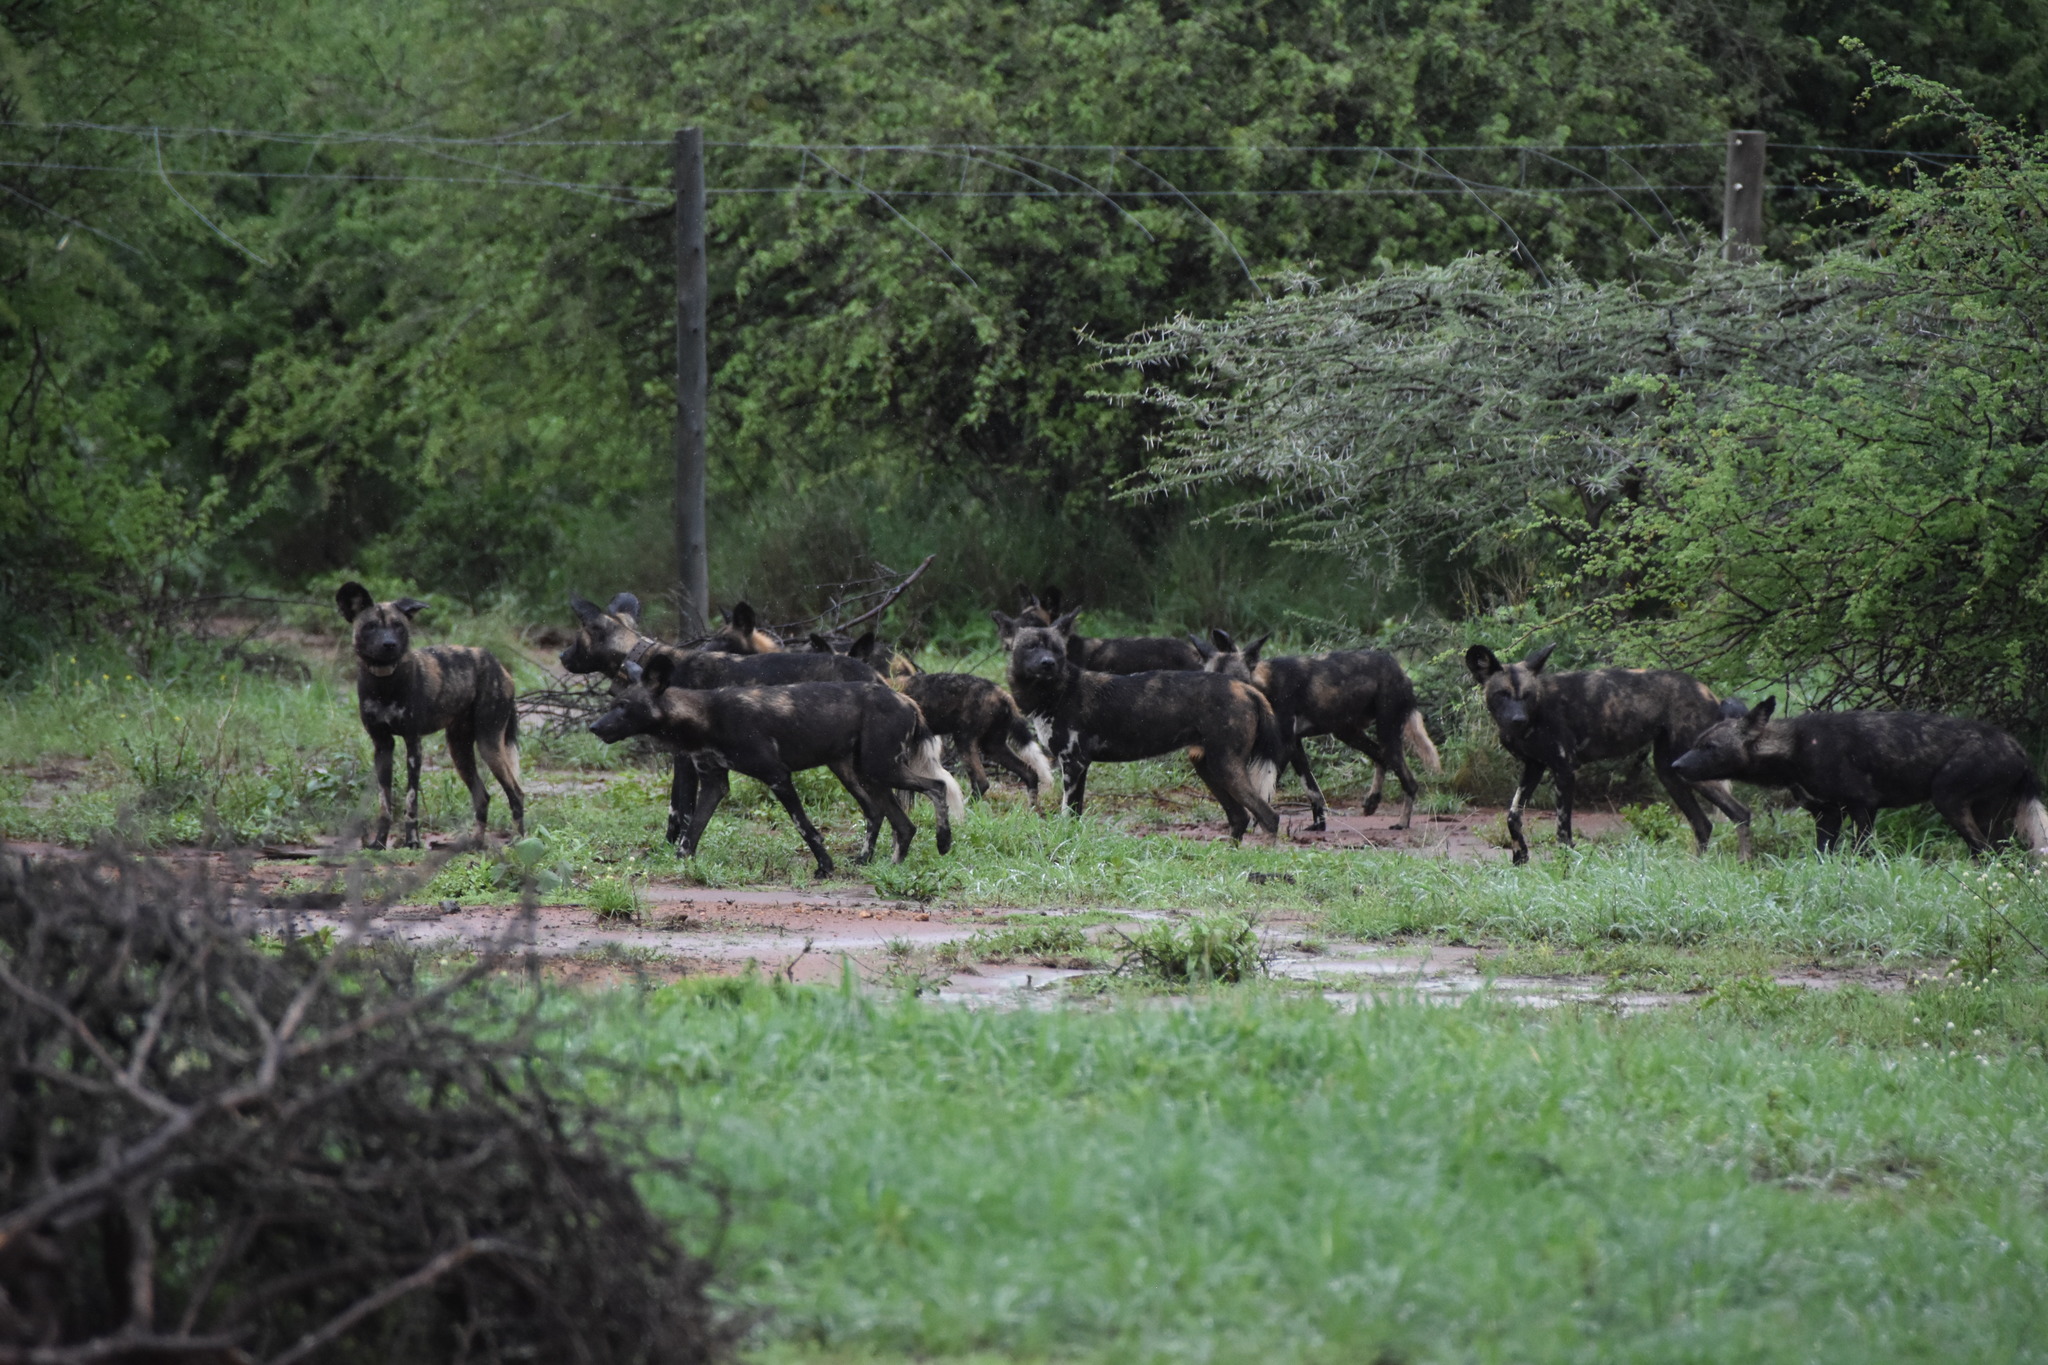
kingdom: Animalia
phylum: Chordata
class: Mammalia
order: Carnivora
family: Canidae
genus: Lycaon
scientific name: Lycaon pictus
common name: African wild dog
